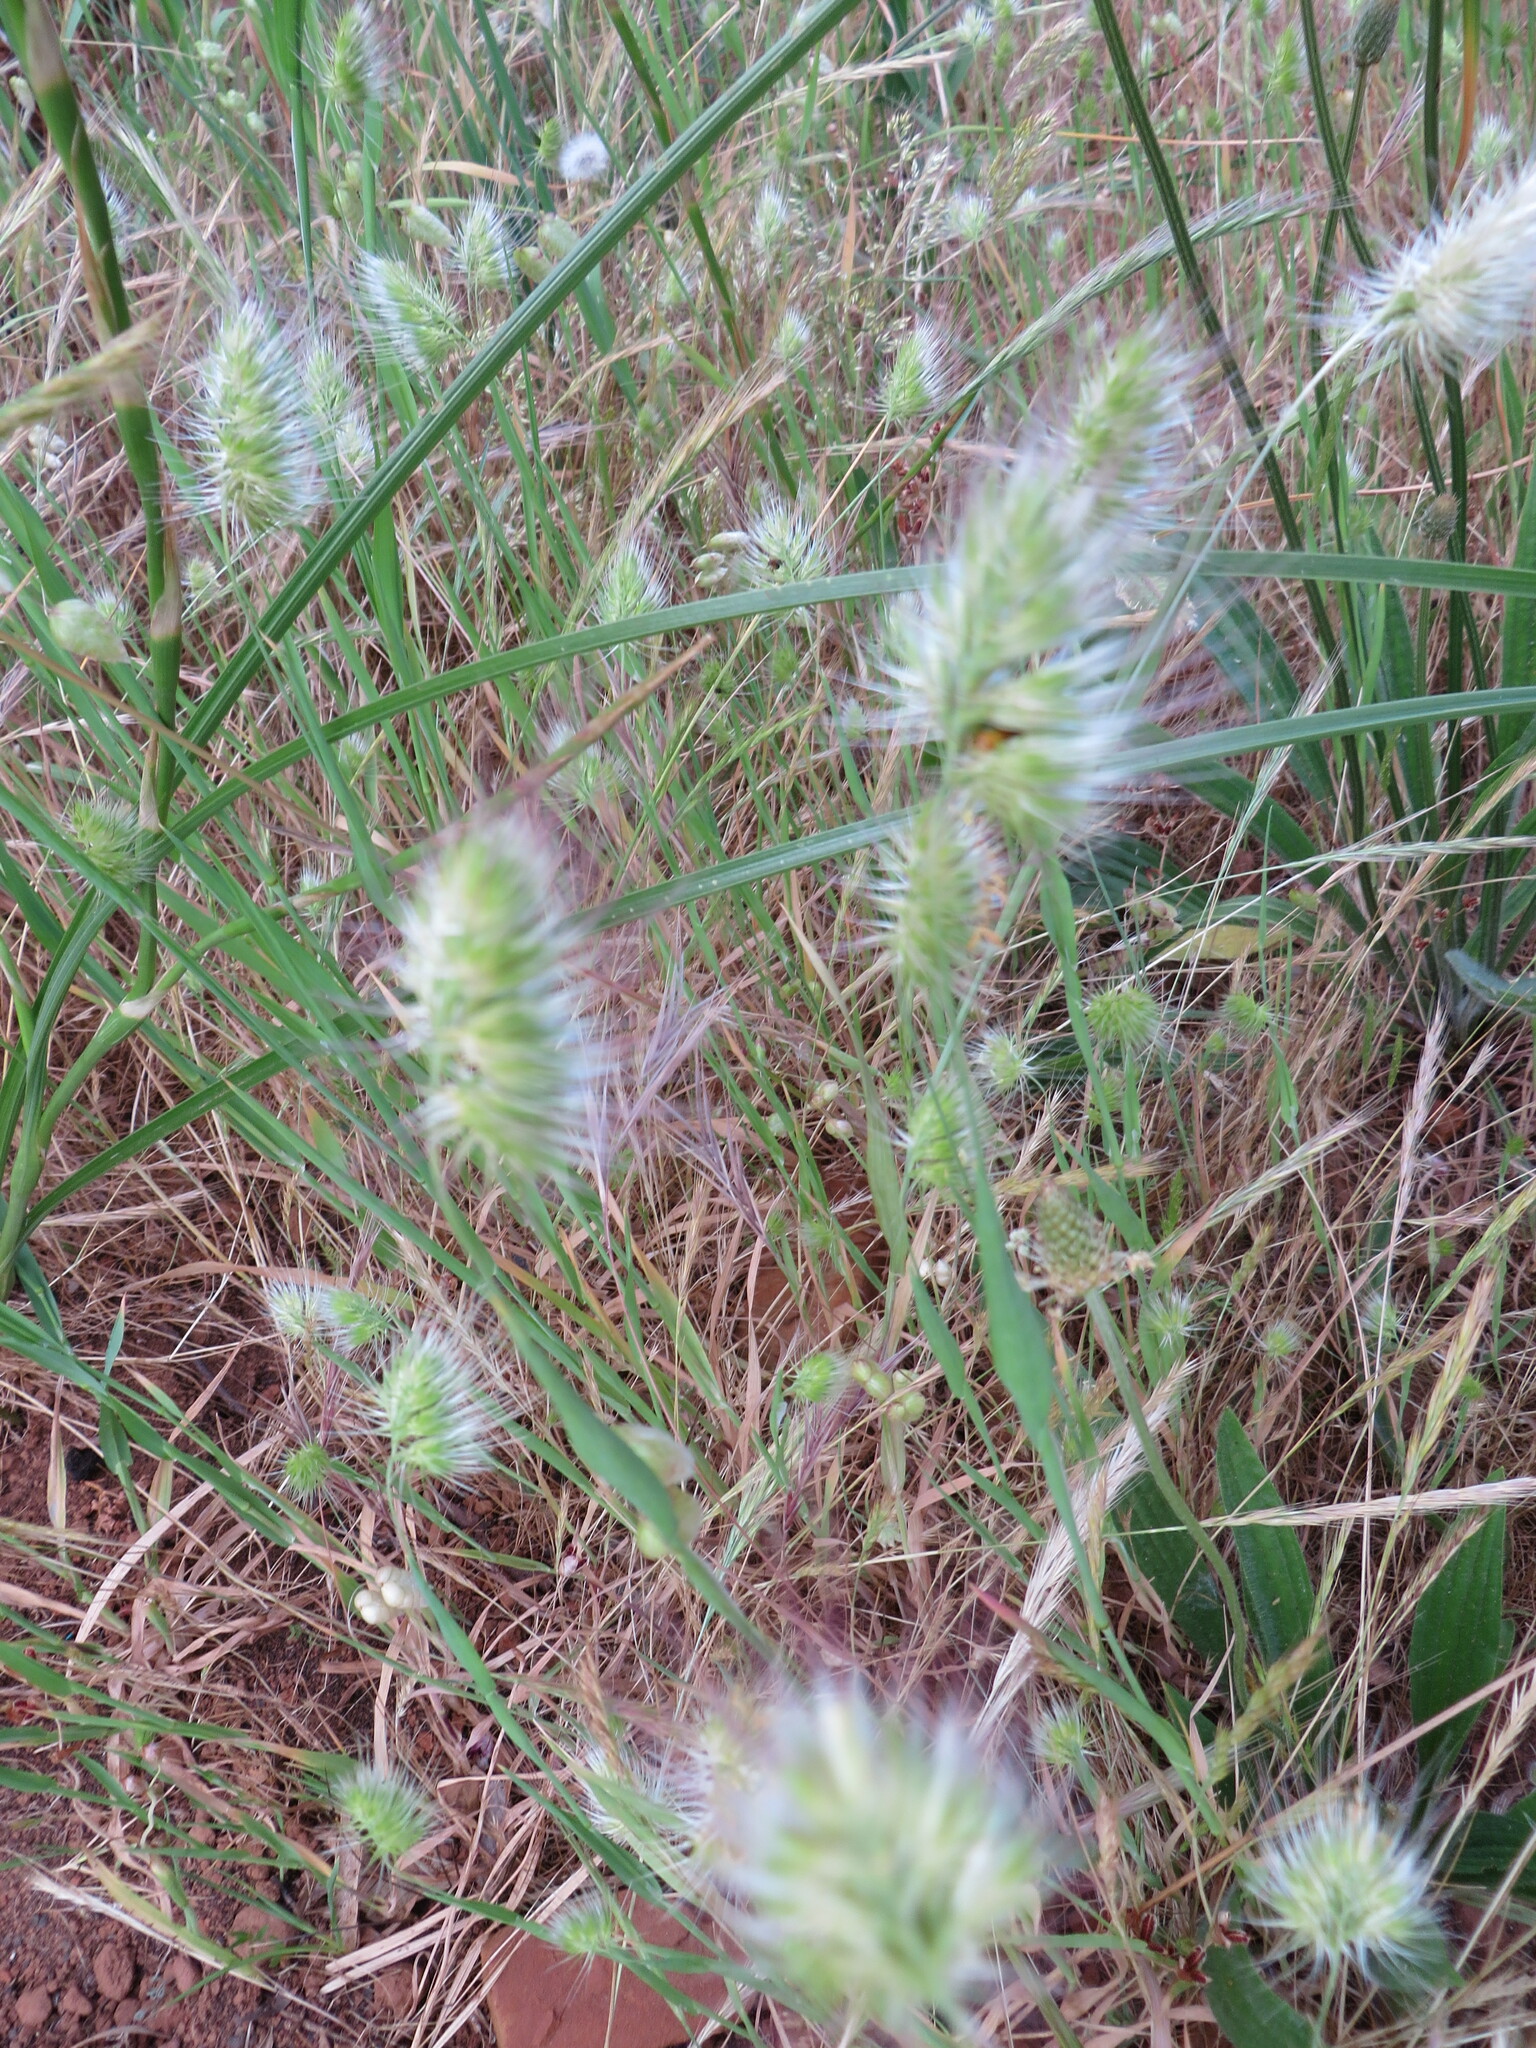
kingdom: Plantae
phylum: Tracheophyta
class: Liliopsida
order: Poales
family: Poaceae
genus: Cynosurus
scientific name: Cynosurus echinatus
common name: Rough dog's-tail
